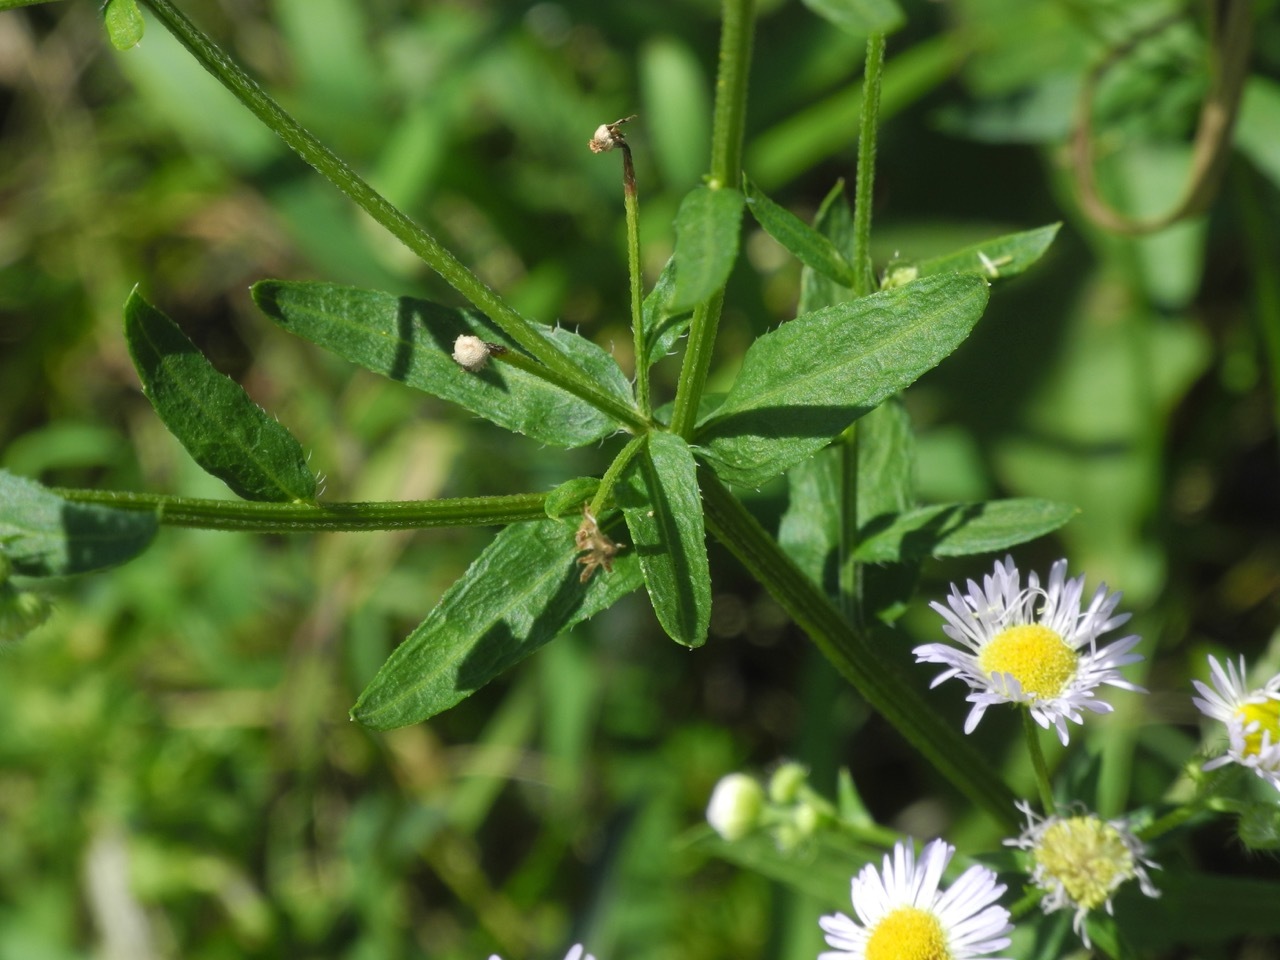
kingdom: Plantae
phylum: Tracheophyta
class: Magnoliopsida
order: Asterales
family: Asteraceae
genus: Erigeron
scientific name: Erigeron strigosus
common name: Common eastern fleabane
